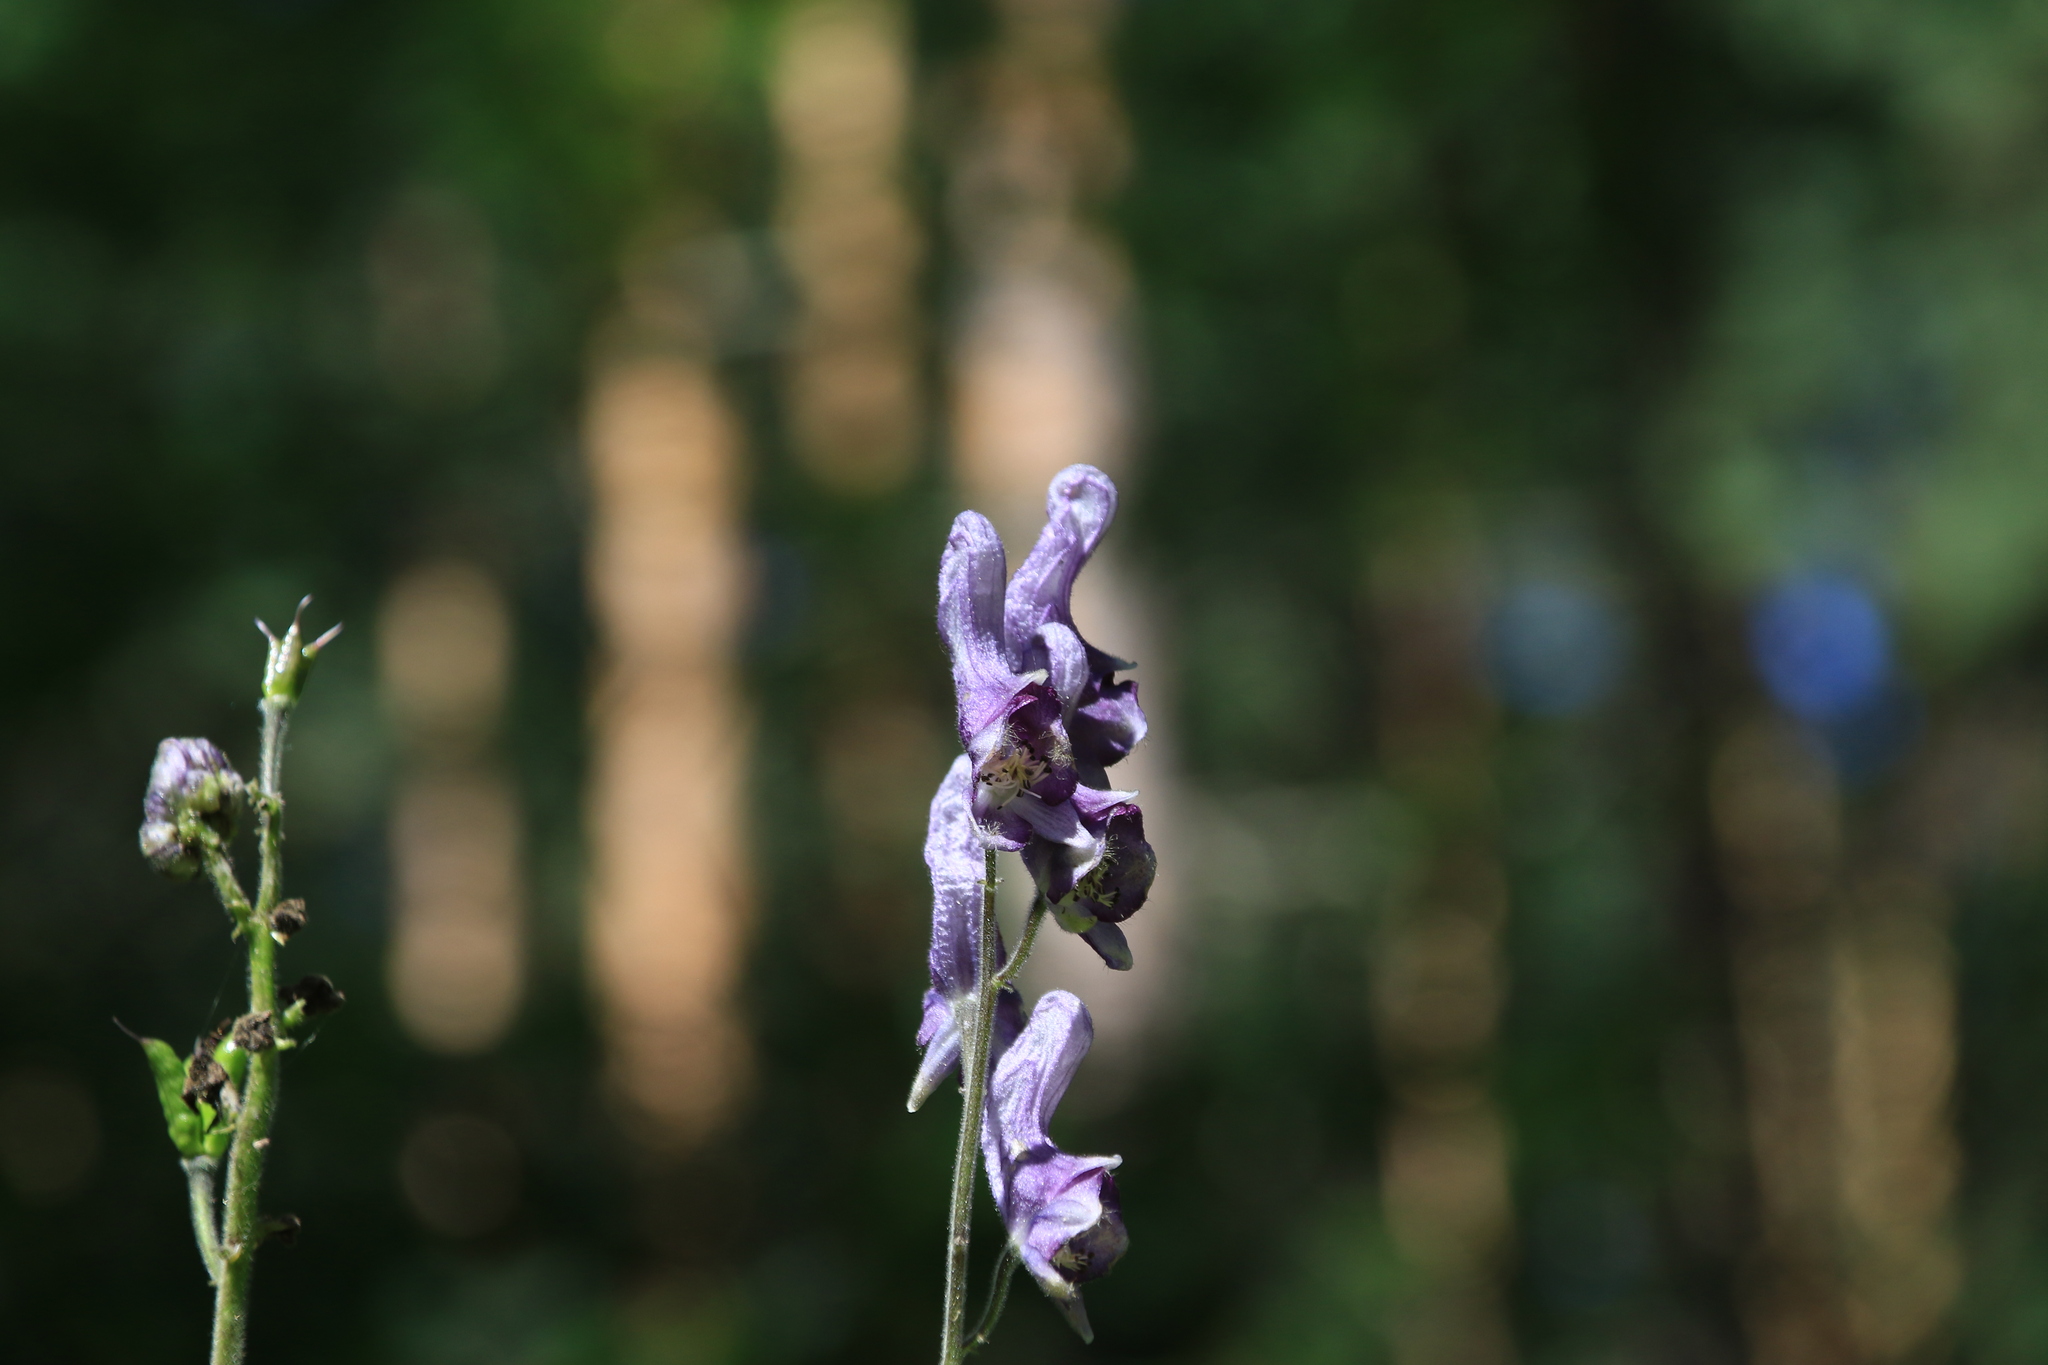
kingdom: Plantae
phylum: Tracheophyta
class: Magnoliopsida
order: Ranunculales
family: Ranunculaceae
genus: Aconitum
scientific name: Aconitum septentrionale
